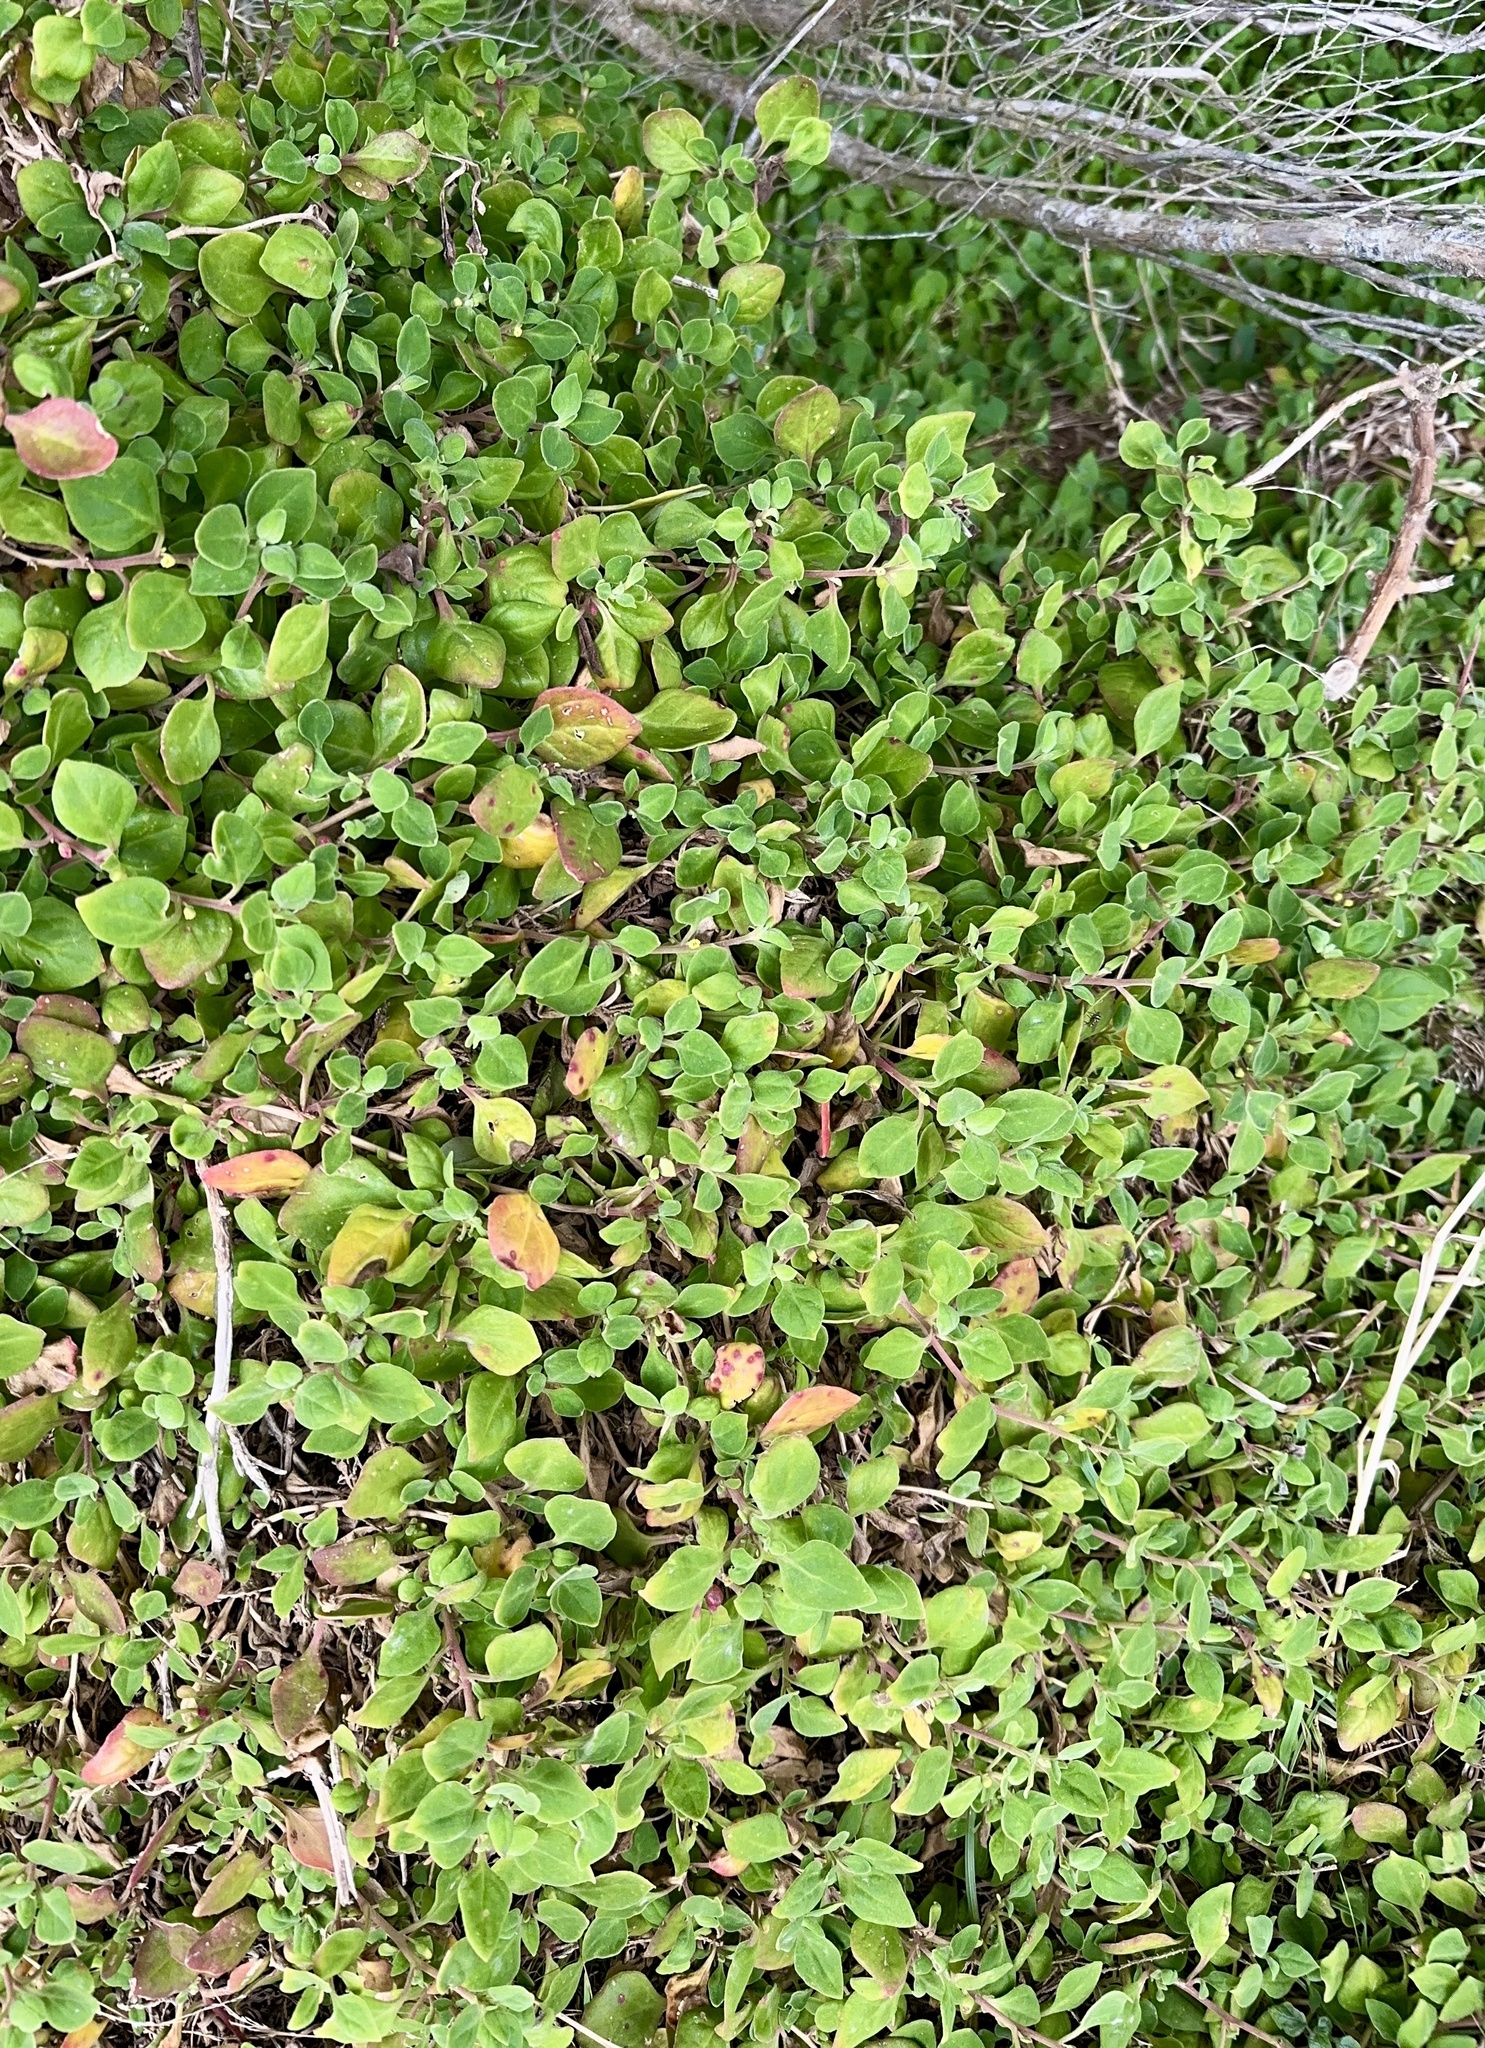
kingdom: Plantae
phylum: Tracheophyta
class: Magnoliopsida
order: Caryophyllales
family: Aizoaceae
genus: Tetragonia
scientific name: Tetragonia implexicoma
